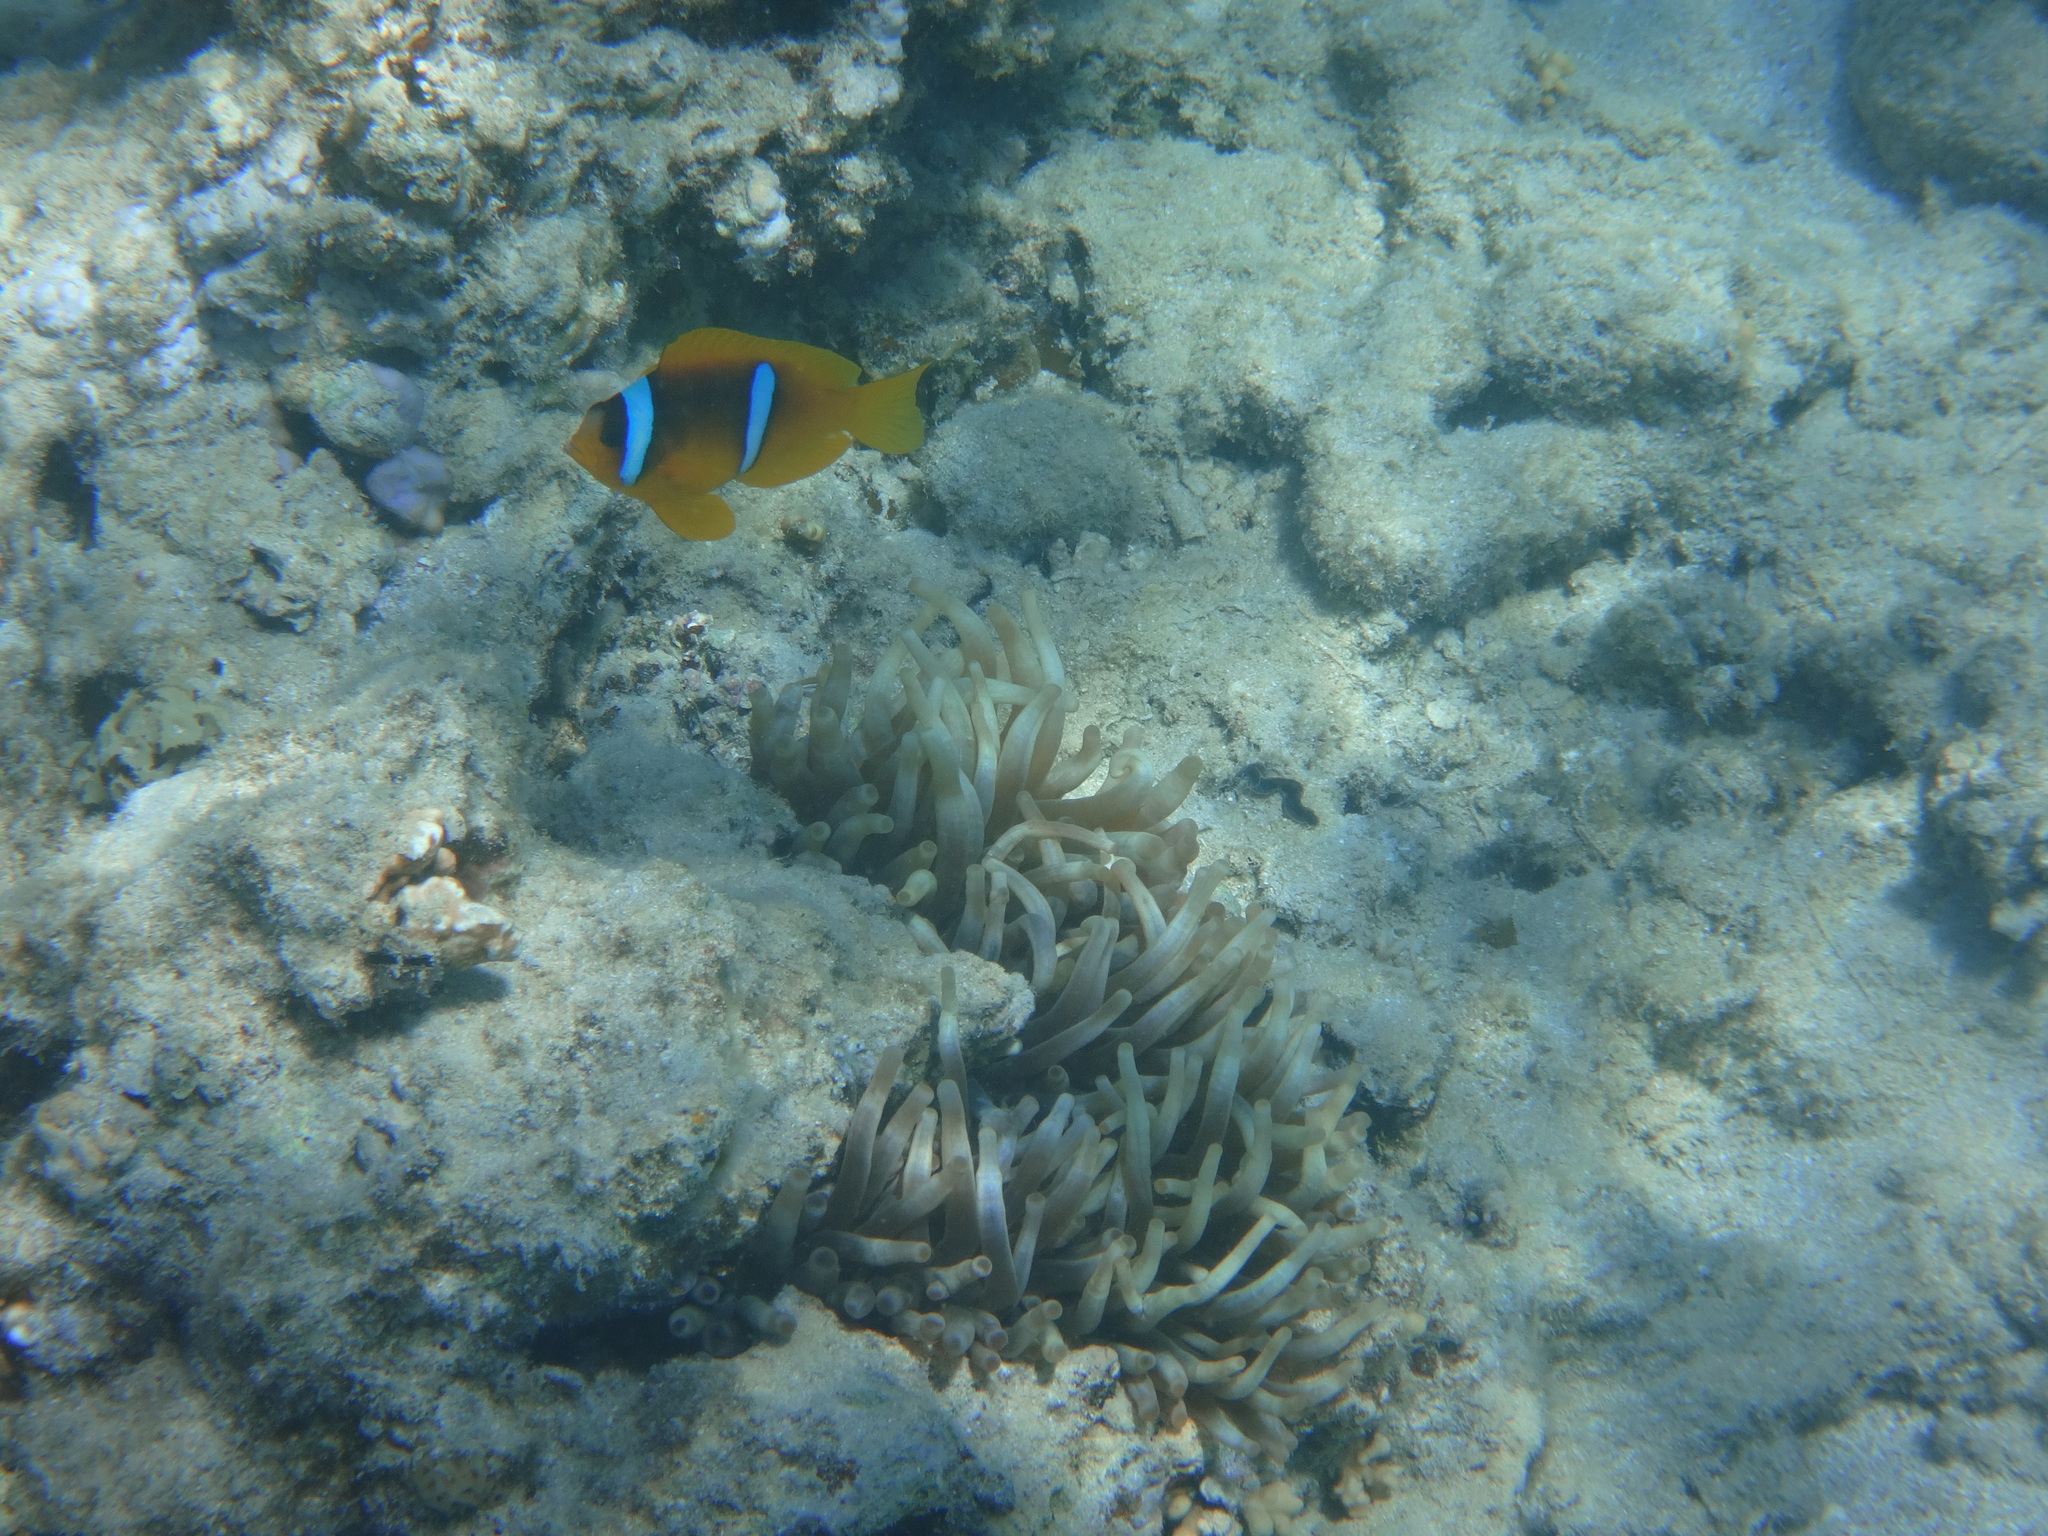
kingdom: Animalia
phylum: Chordata
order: Perciformes
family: Pomacentridae
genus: Amphiprion
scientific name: Amphiprion bicinctus
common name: Two-banded anemonefish
